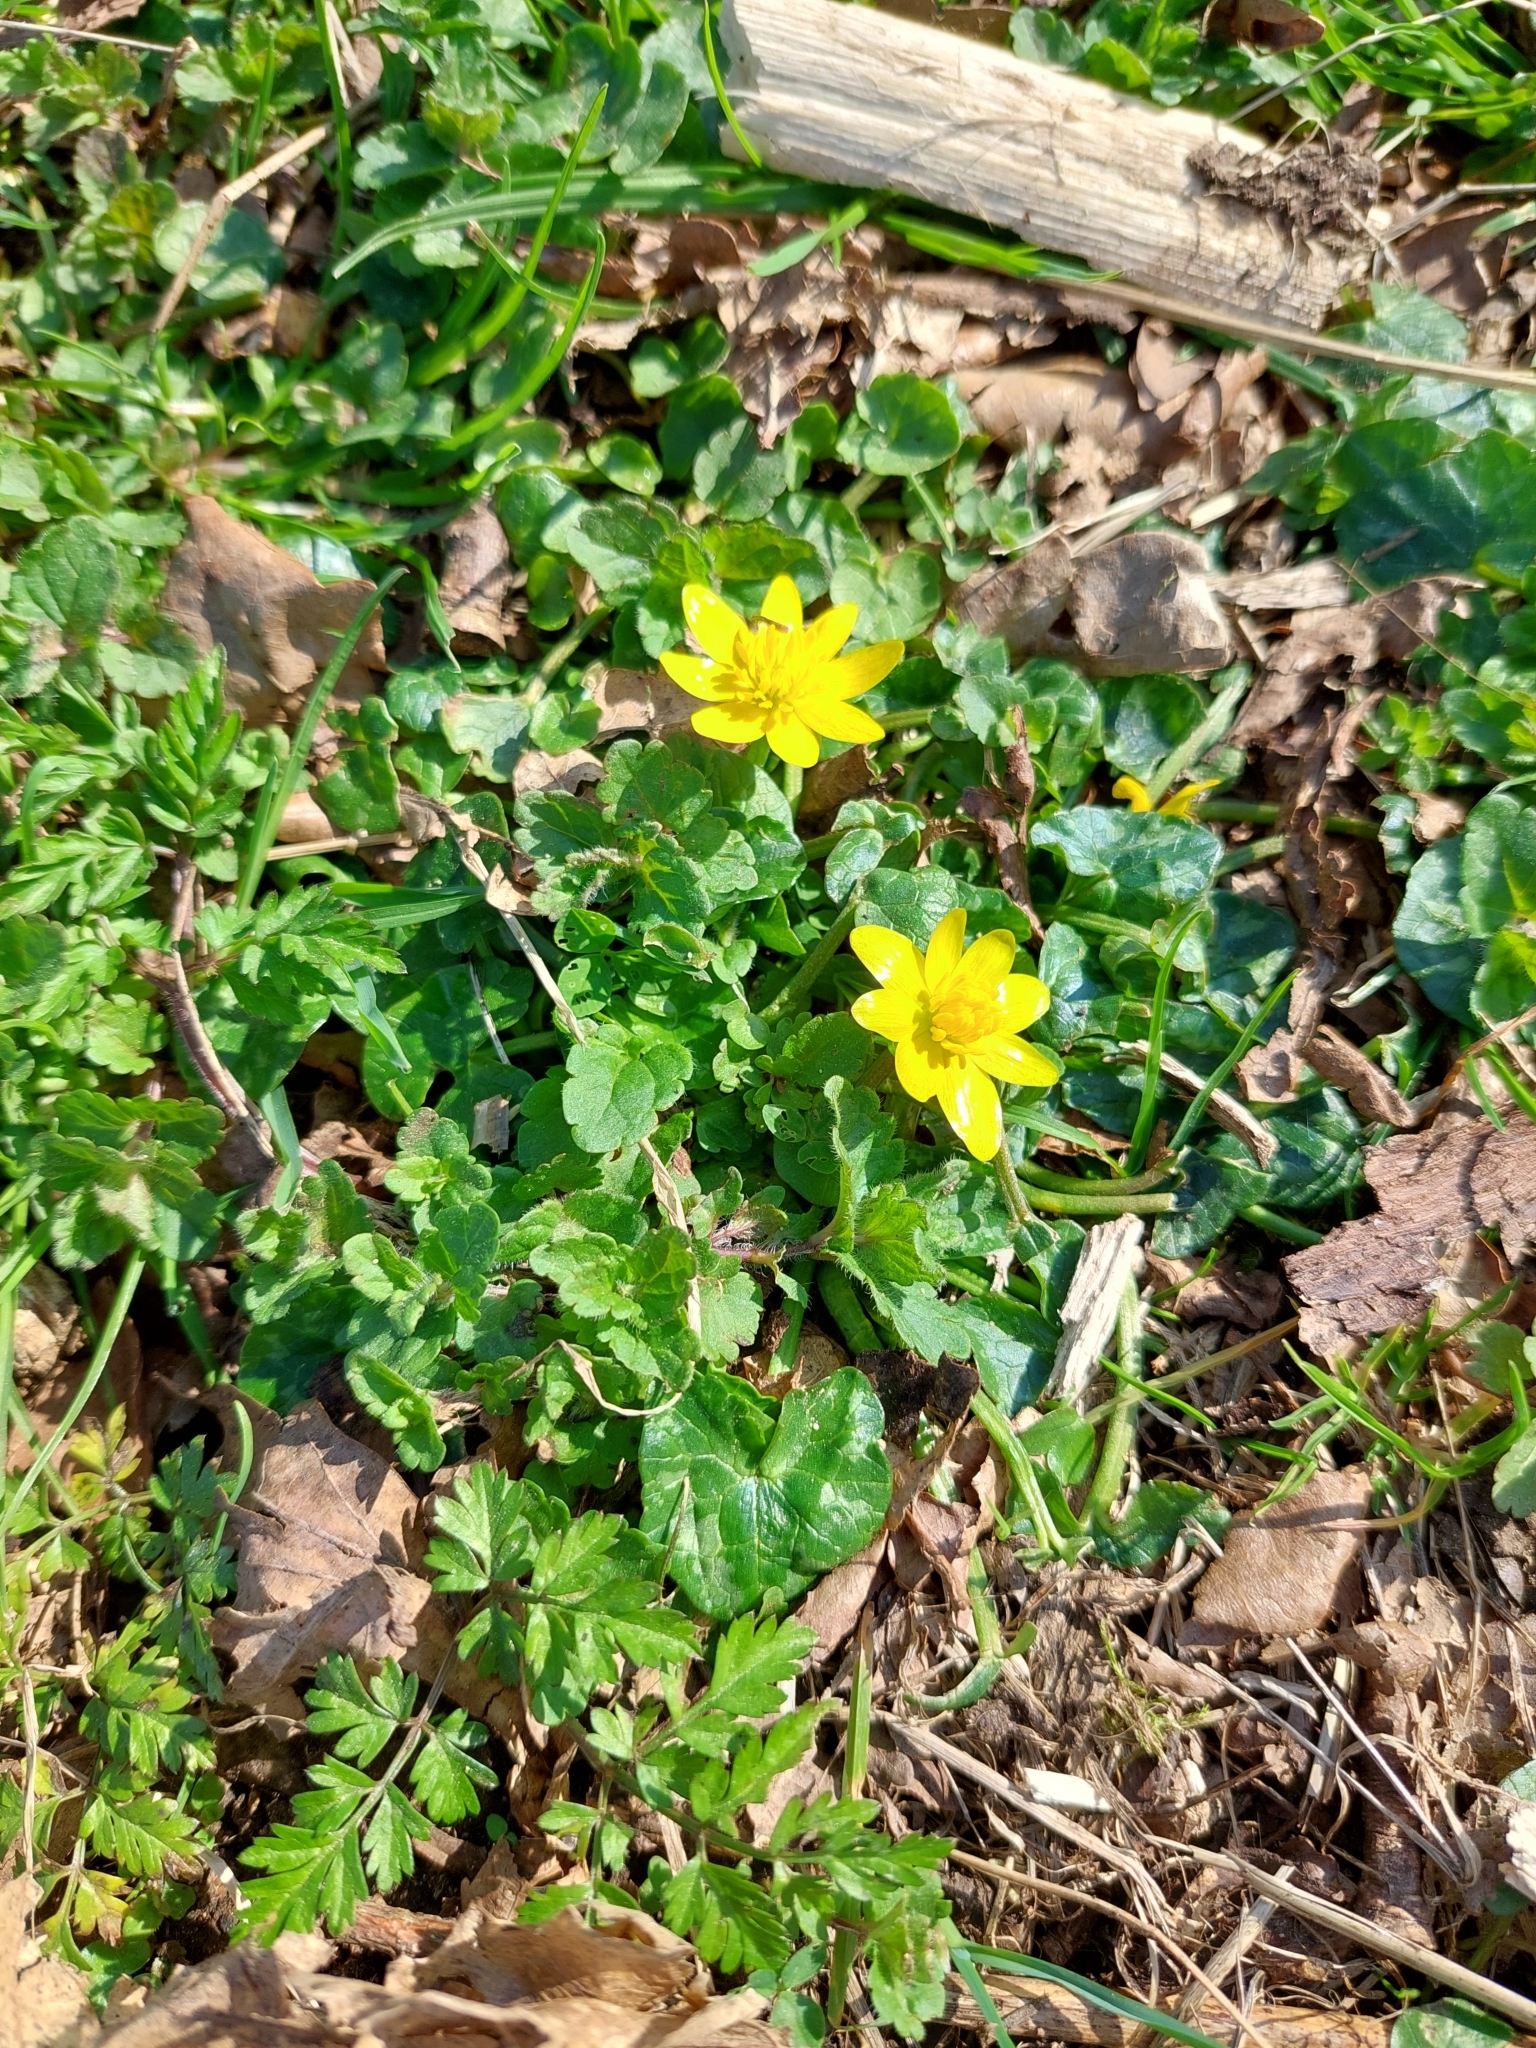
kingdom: Plantae
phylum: Tracheophyta
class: Magnoliopsida
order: Ranunculales
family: Ranunculaceae
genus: Ficaria
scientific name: Ficaria verna
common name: Lesser celandine
